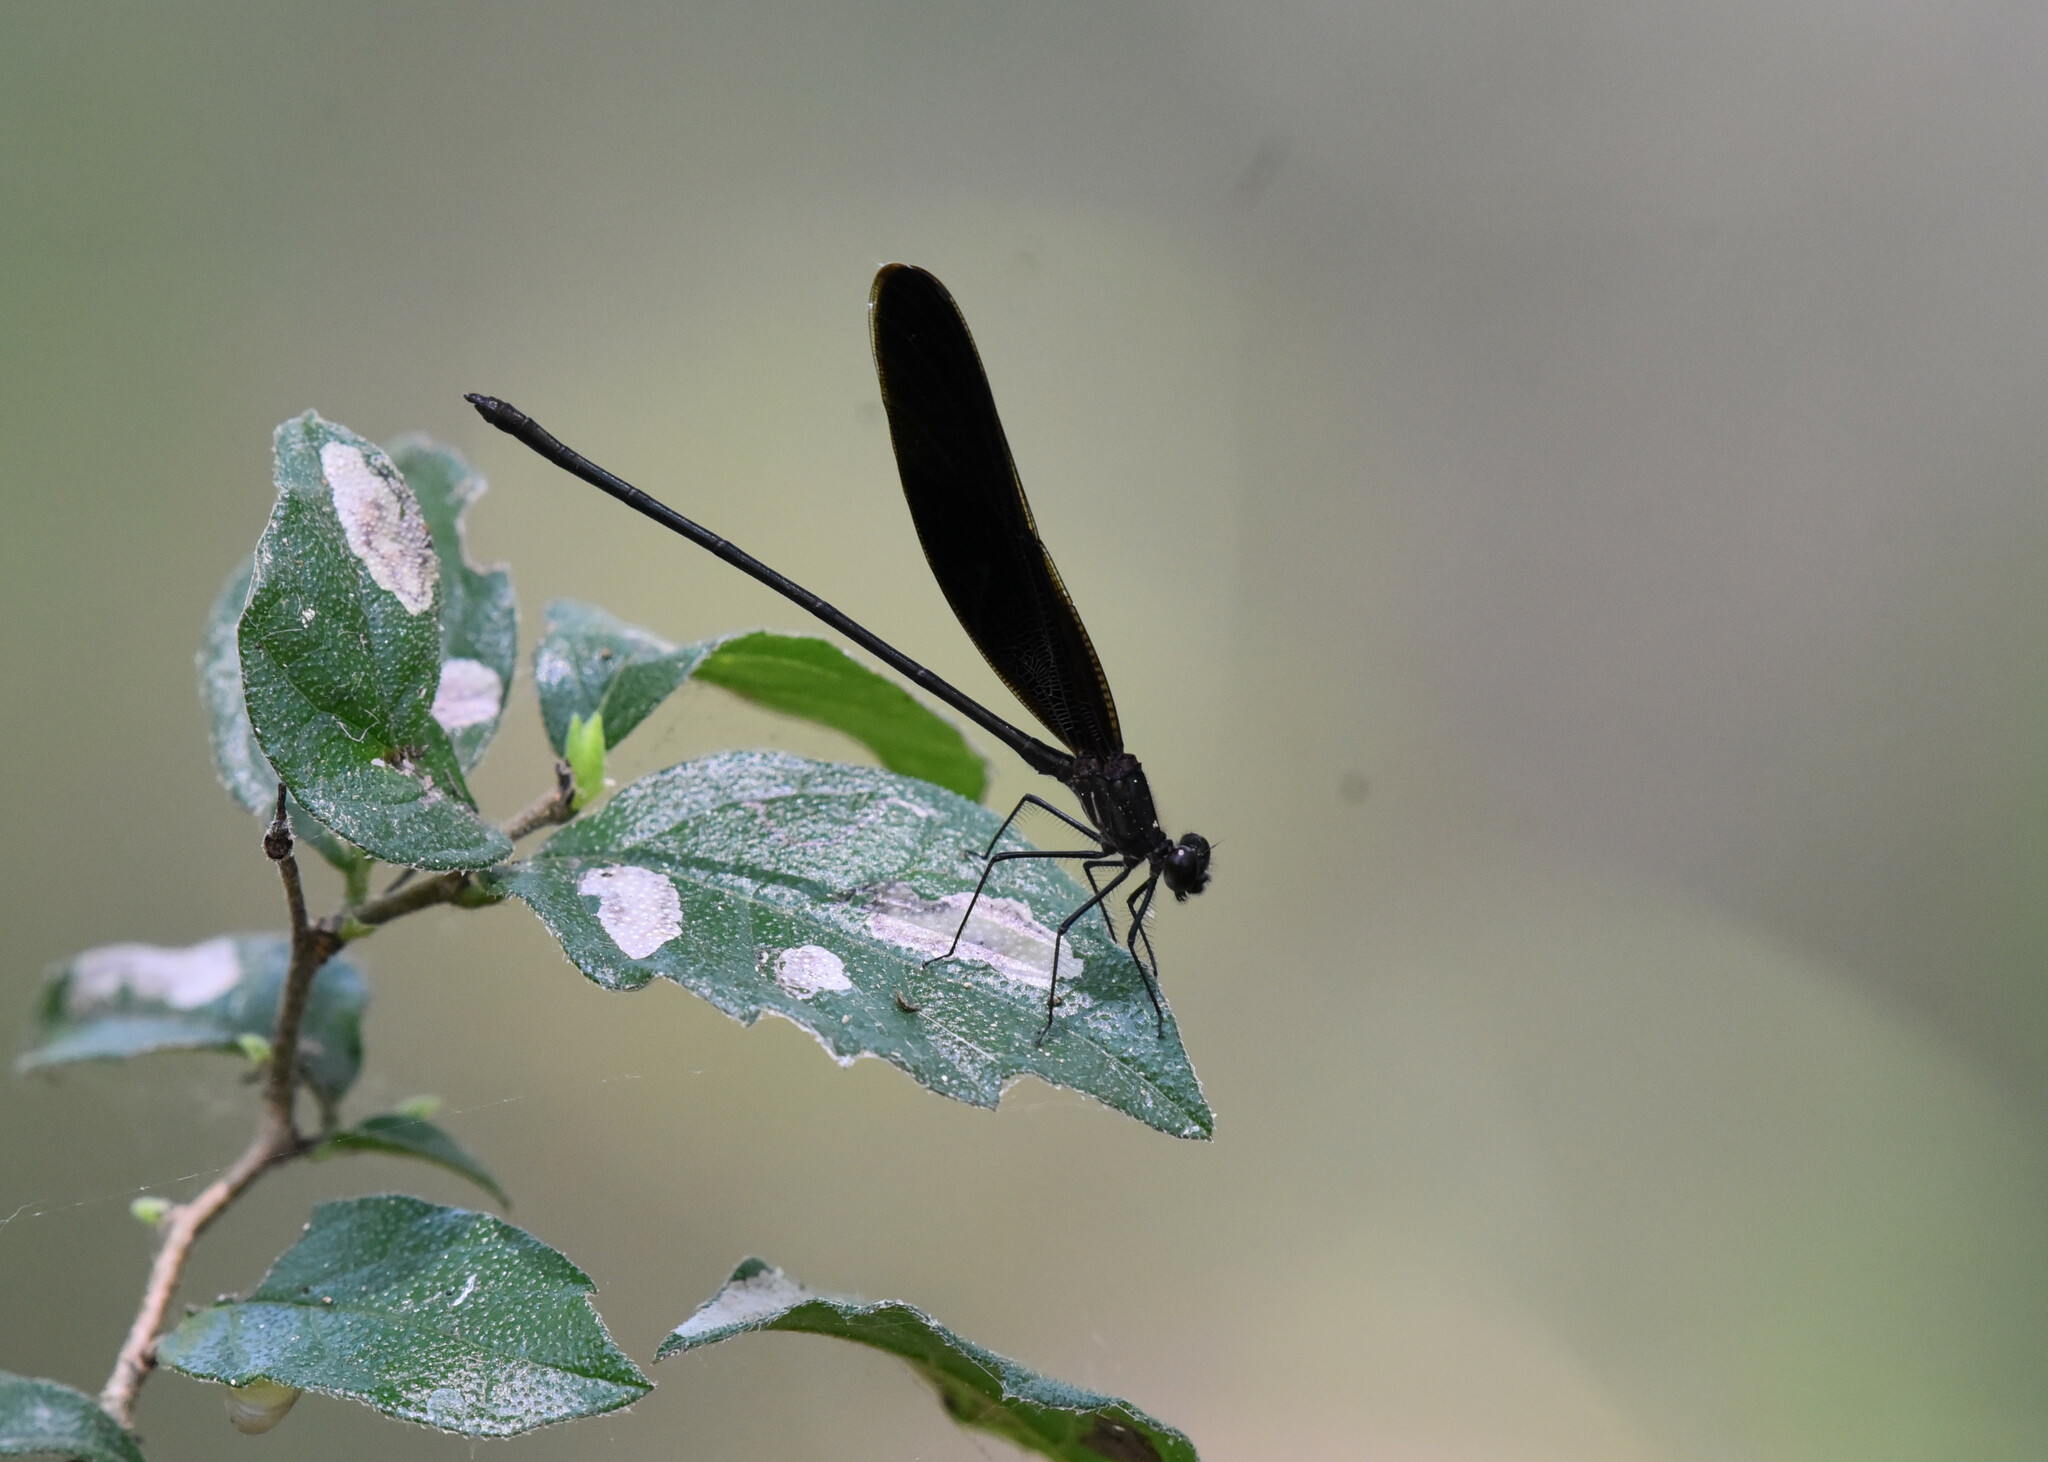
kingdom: Animalia
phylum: Arthropoda
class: Insecta
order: Odonata
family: Calopterygidae
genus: Hetaerina
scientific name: Hetaerina titia
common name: Smoky rubyspot
